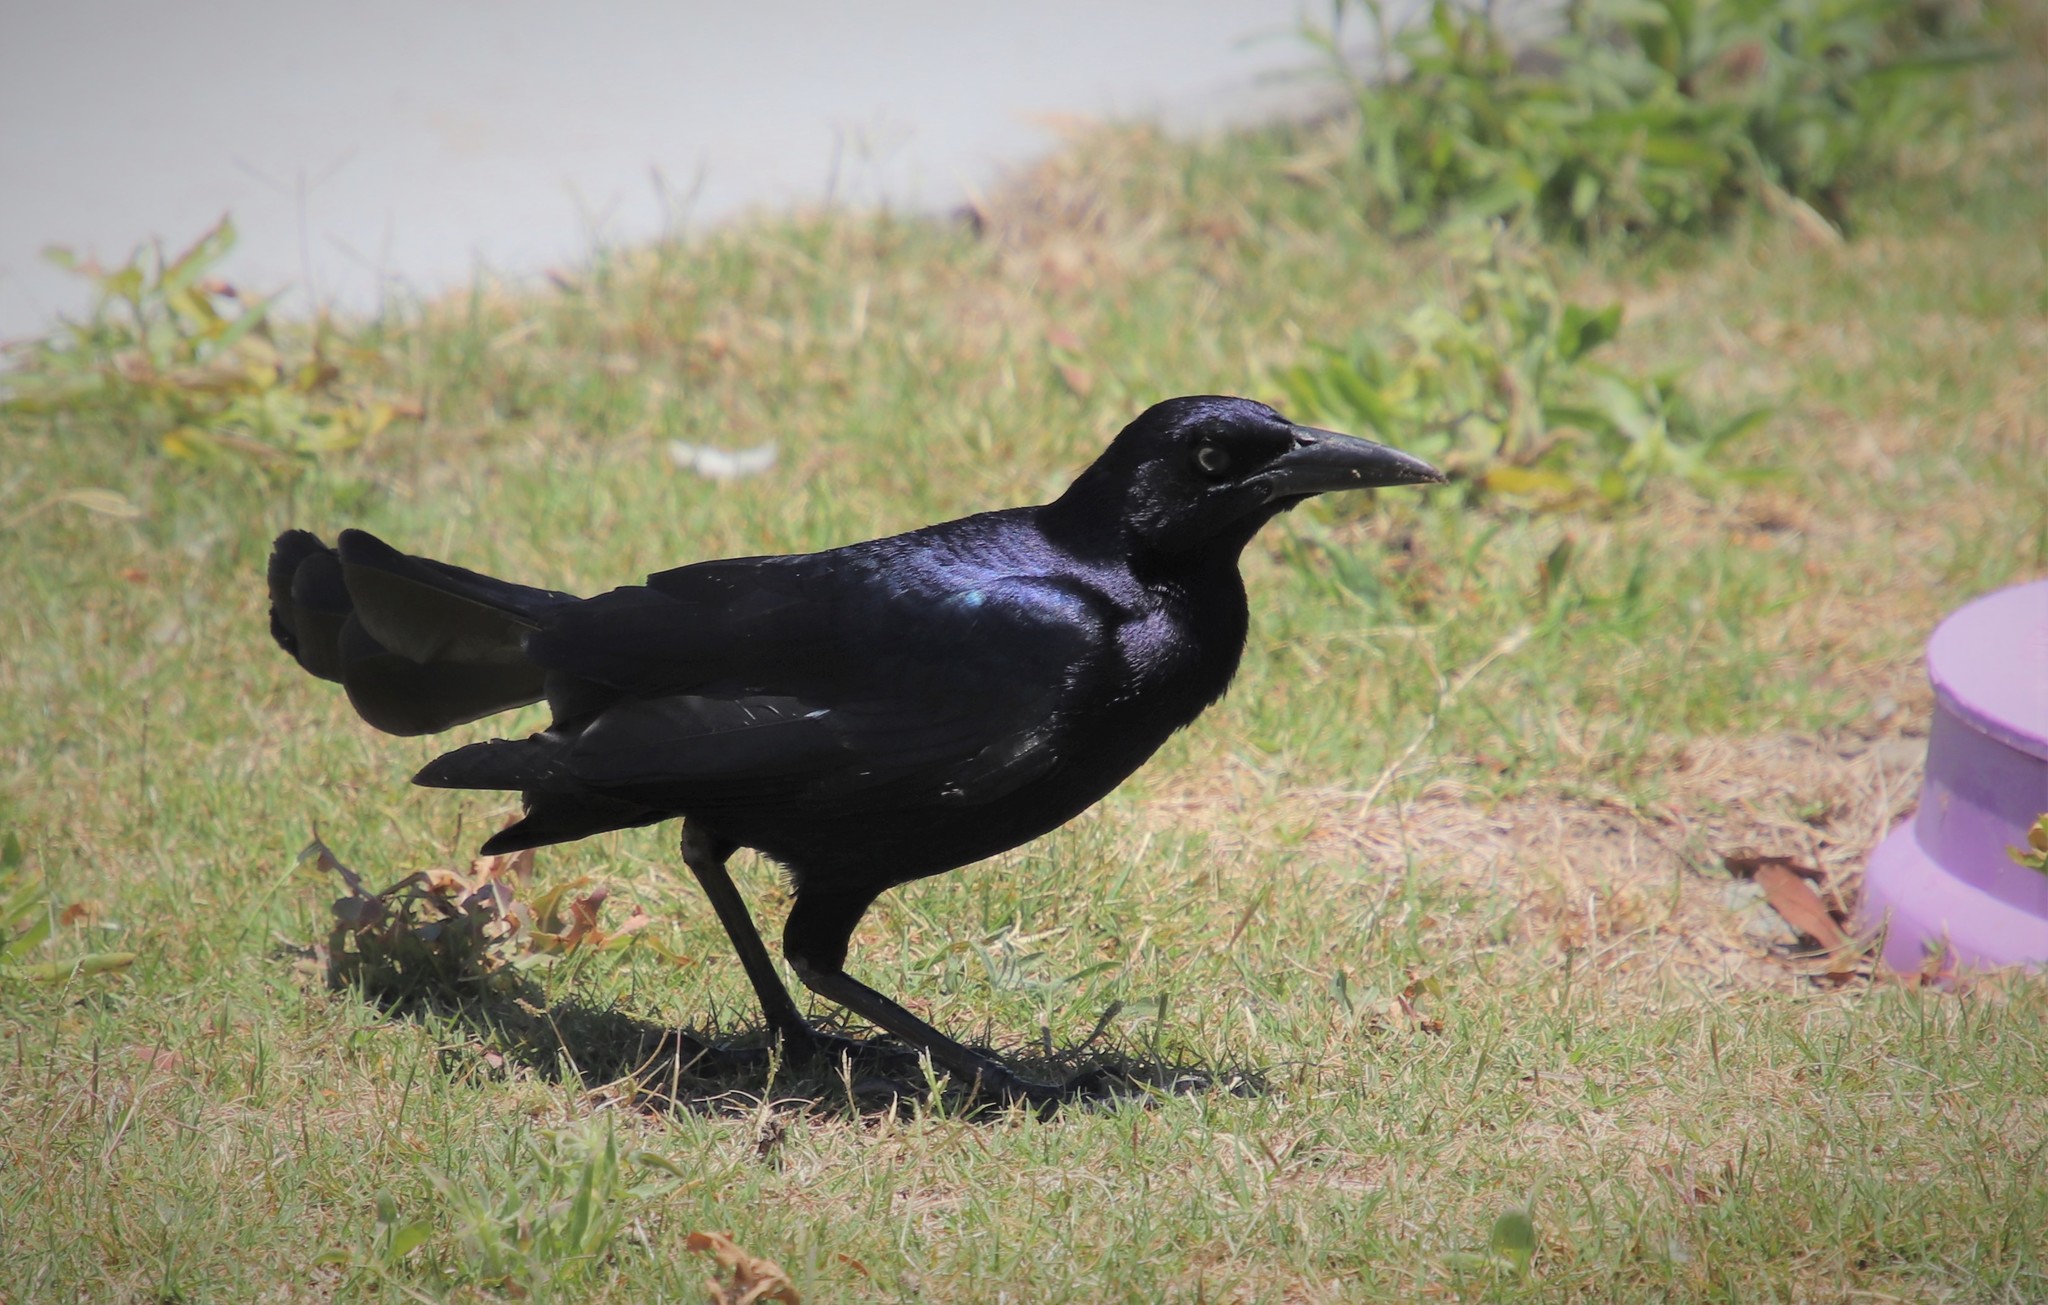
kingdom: Animalia
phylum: Chordata
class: Aves
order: Passeriformes
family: Icteridae
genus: Quiscalus
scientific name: Quiscalus mexicanus
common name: Great-tailed grackle
